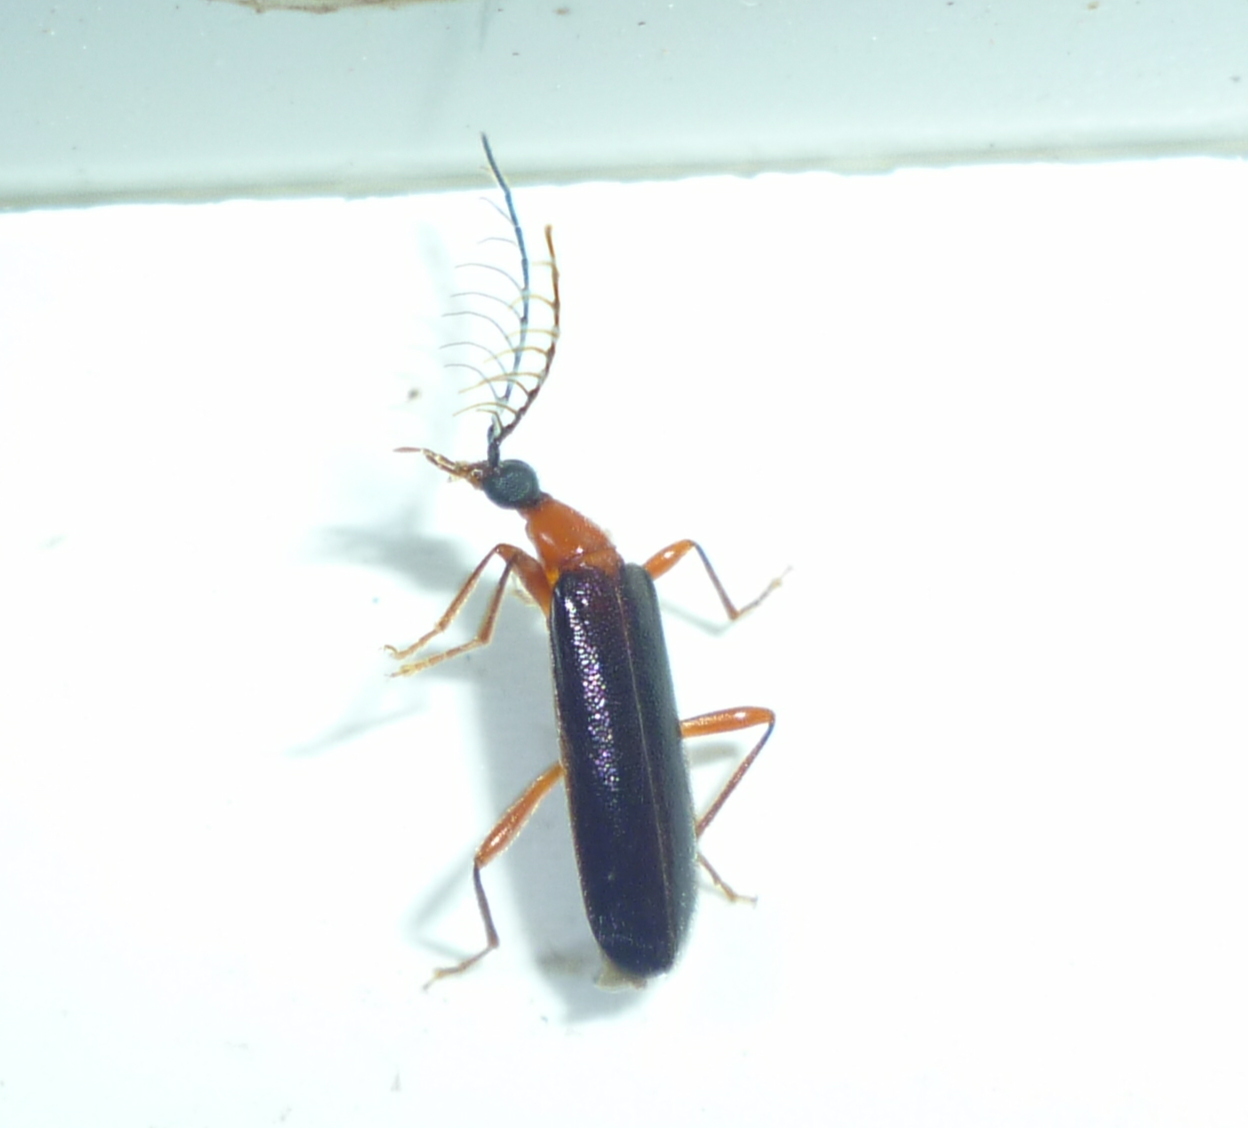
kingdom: Animalia
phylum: Arthropoda
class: Insecta
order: Coleoptera
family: Pyrochroidae
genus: Dendroides
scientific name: Dendroides canadensis
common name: Canada fire-colored beetle
